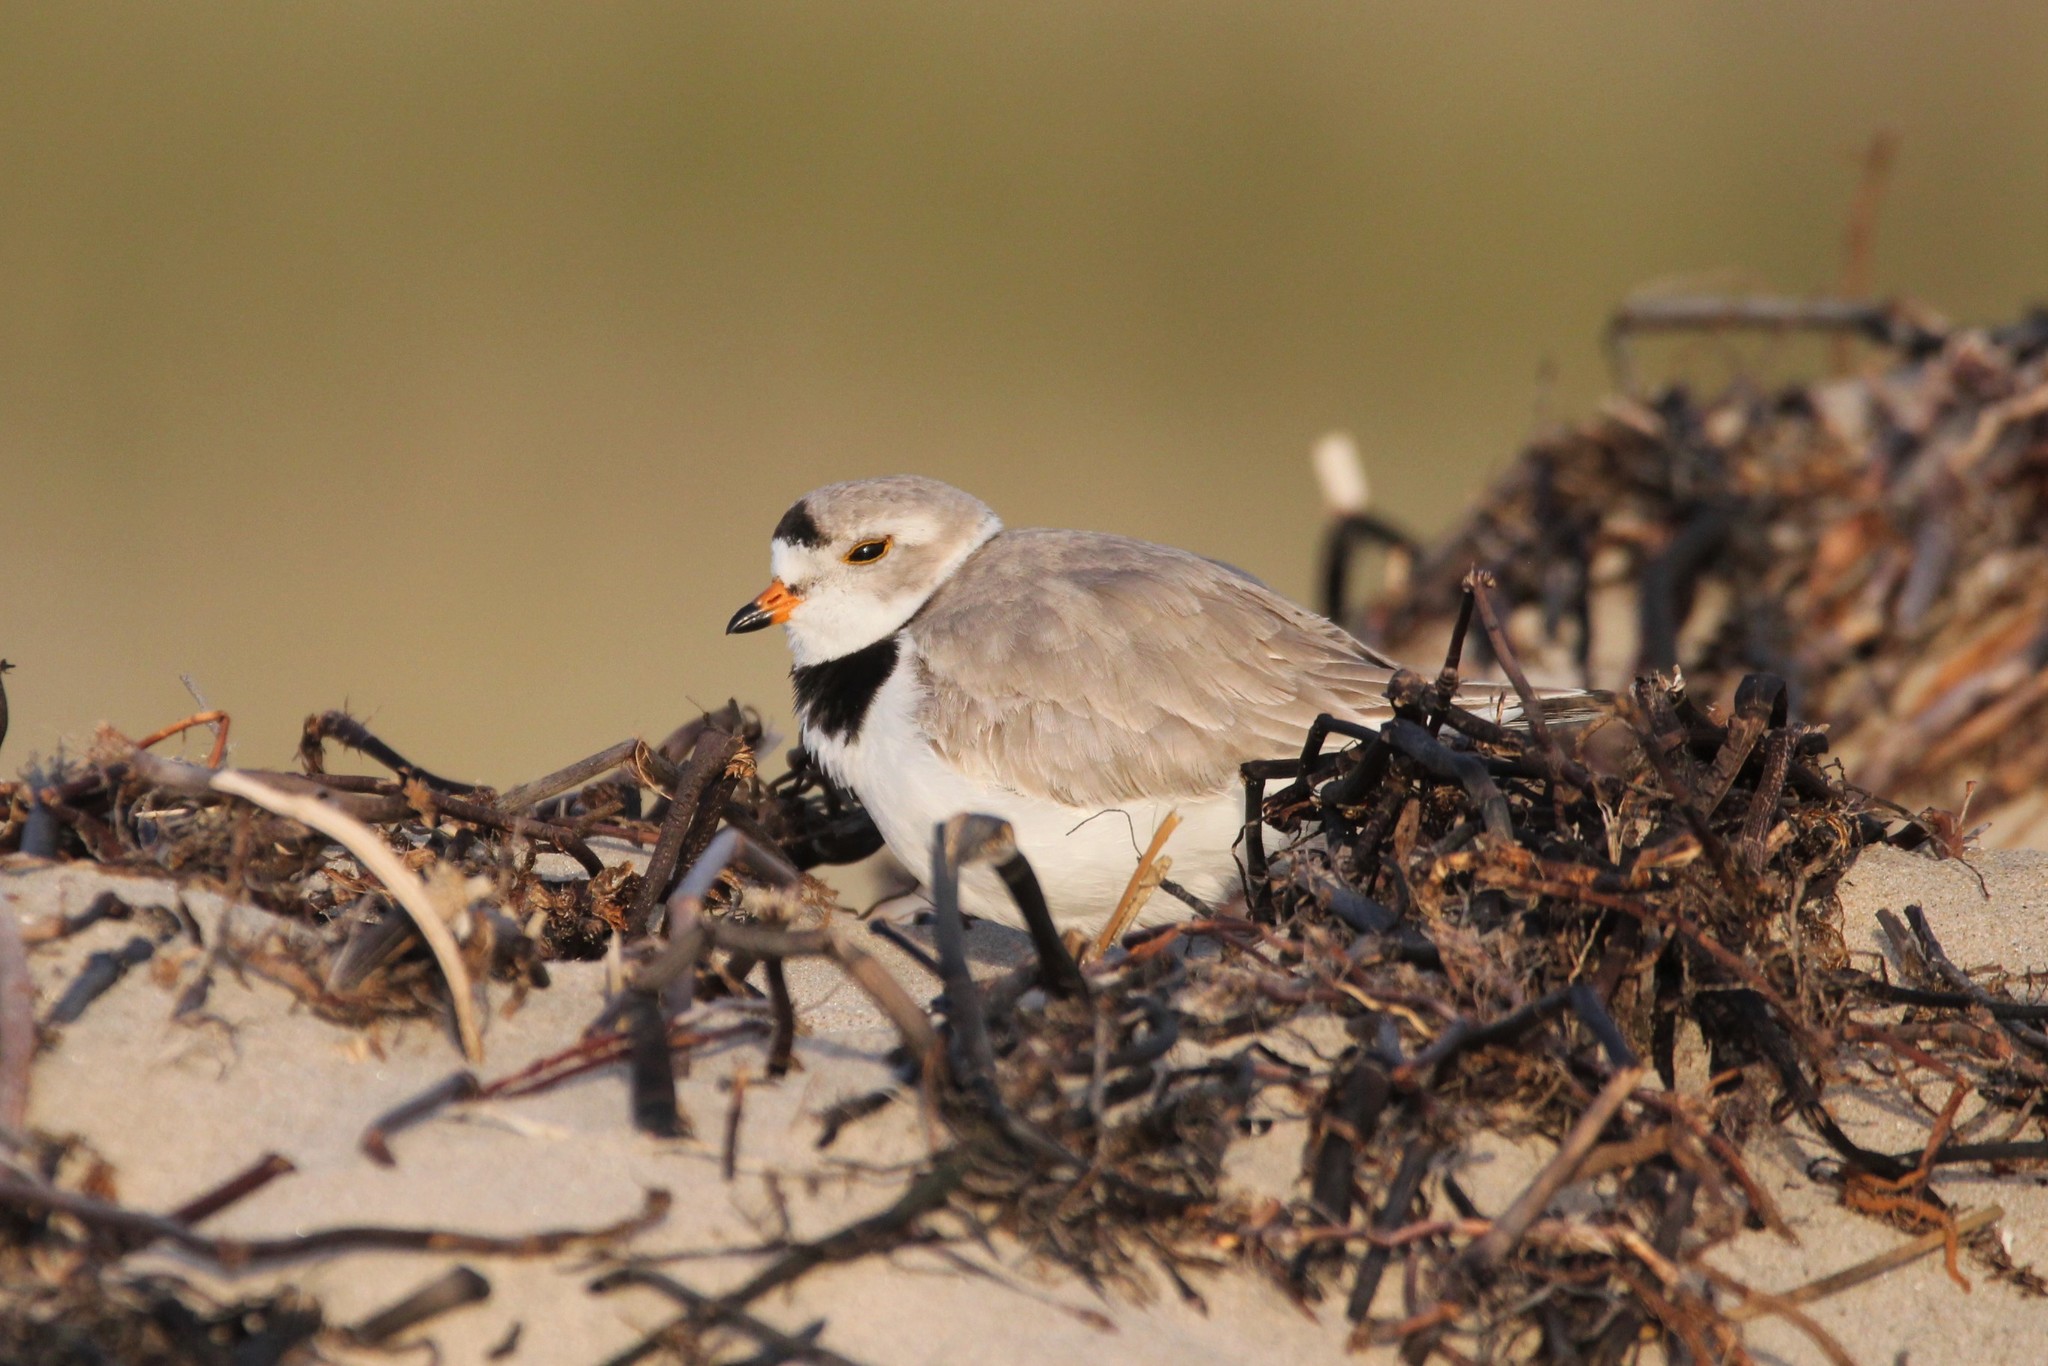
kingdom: Animalia
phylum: Chordata
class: Aves
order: Charadriiformes
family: Charadriidae
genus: Charadrius
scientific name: Charadrius melodus
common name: Piping plover
